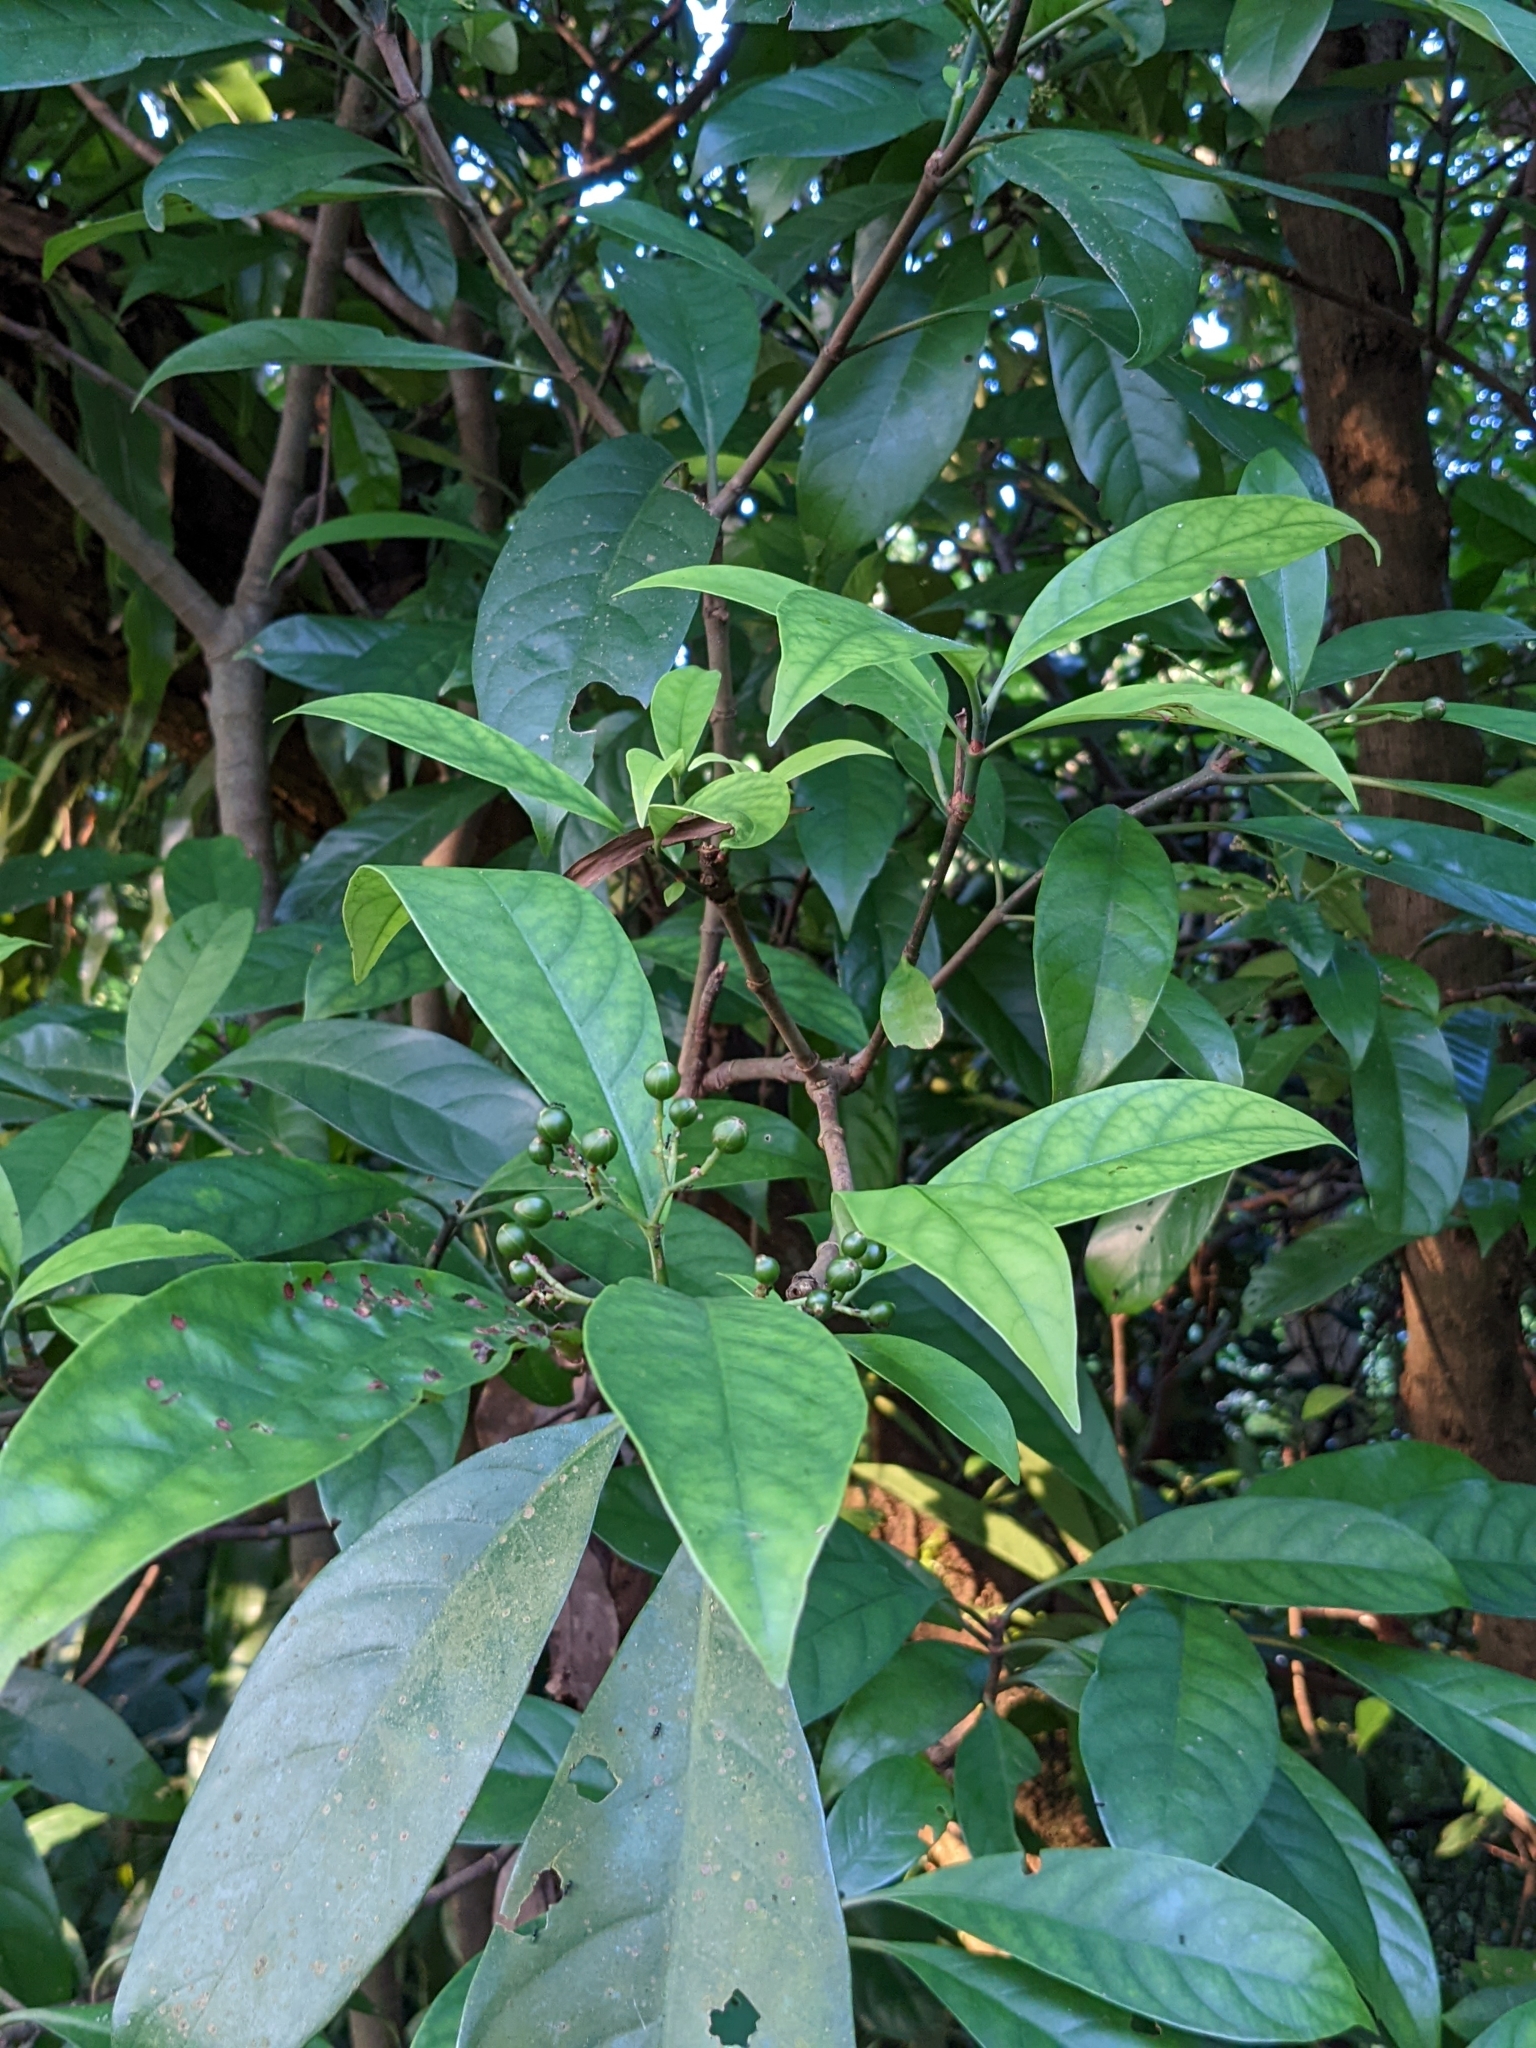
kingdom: Plantae
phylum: Tracheophyta
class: Magnoliopsida
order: Gentianales
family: Rubiaceae
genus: Psychotria
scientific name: Psychotria asiatica
